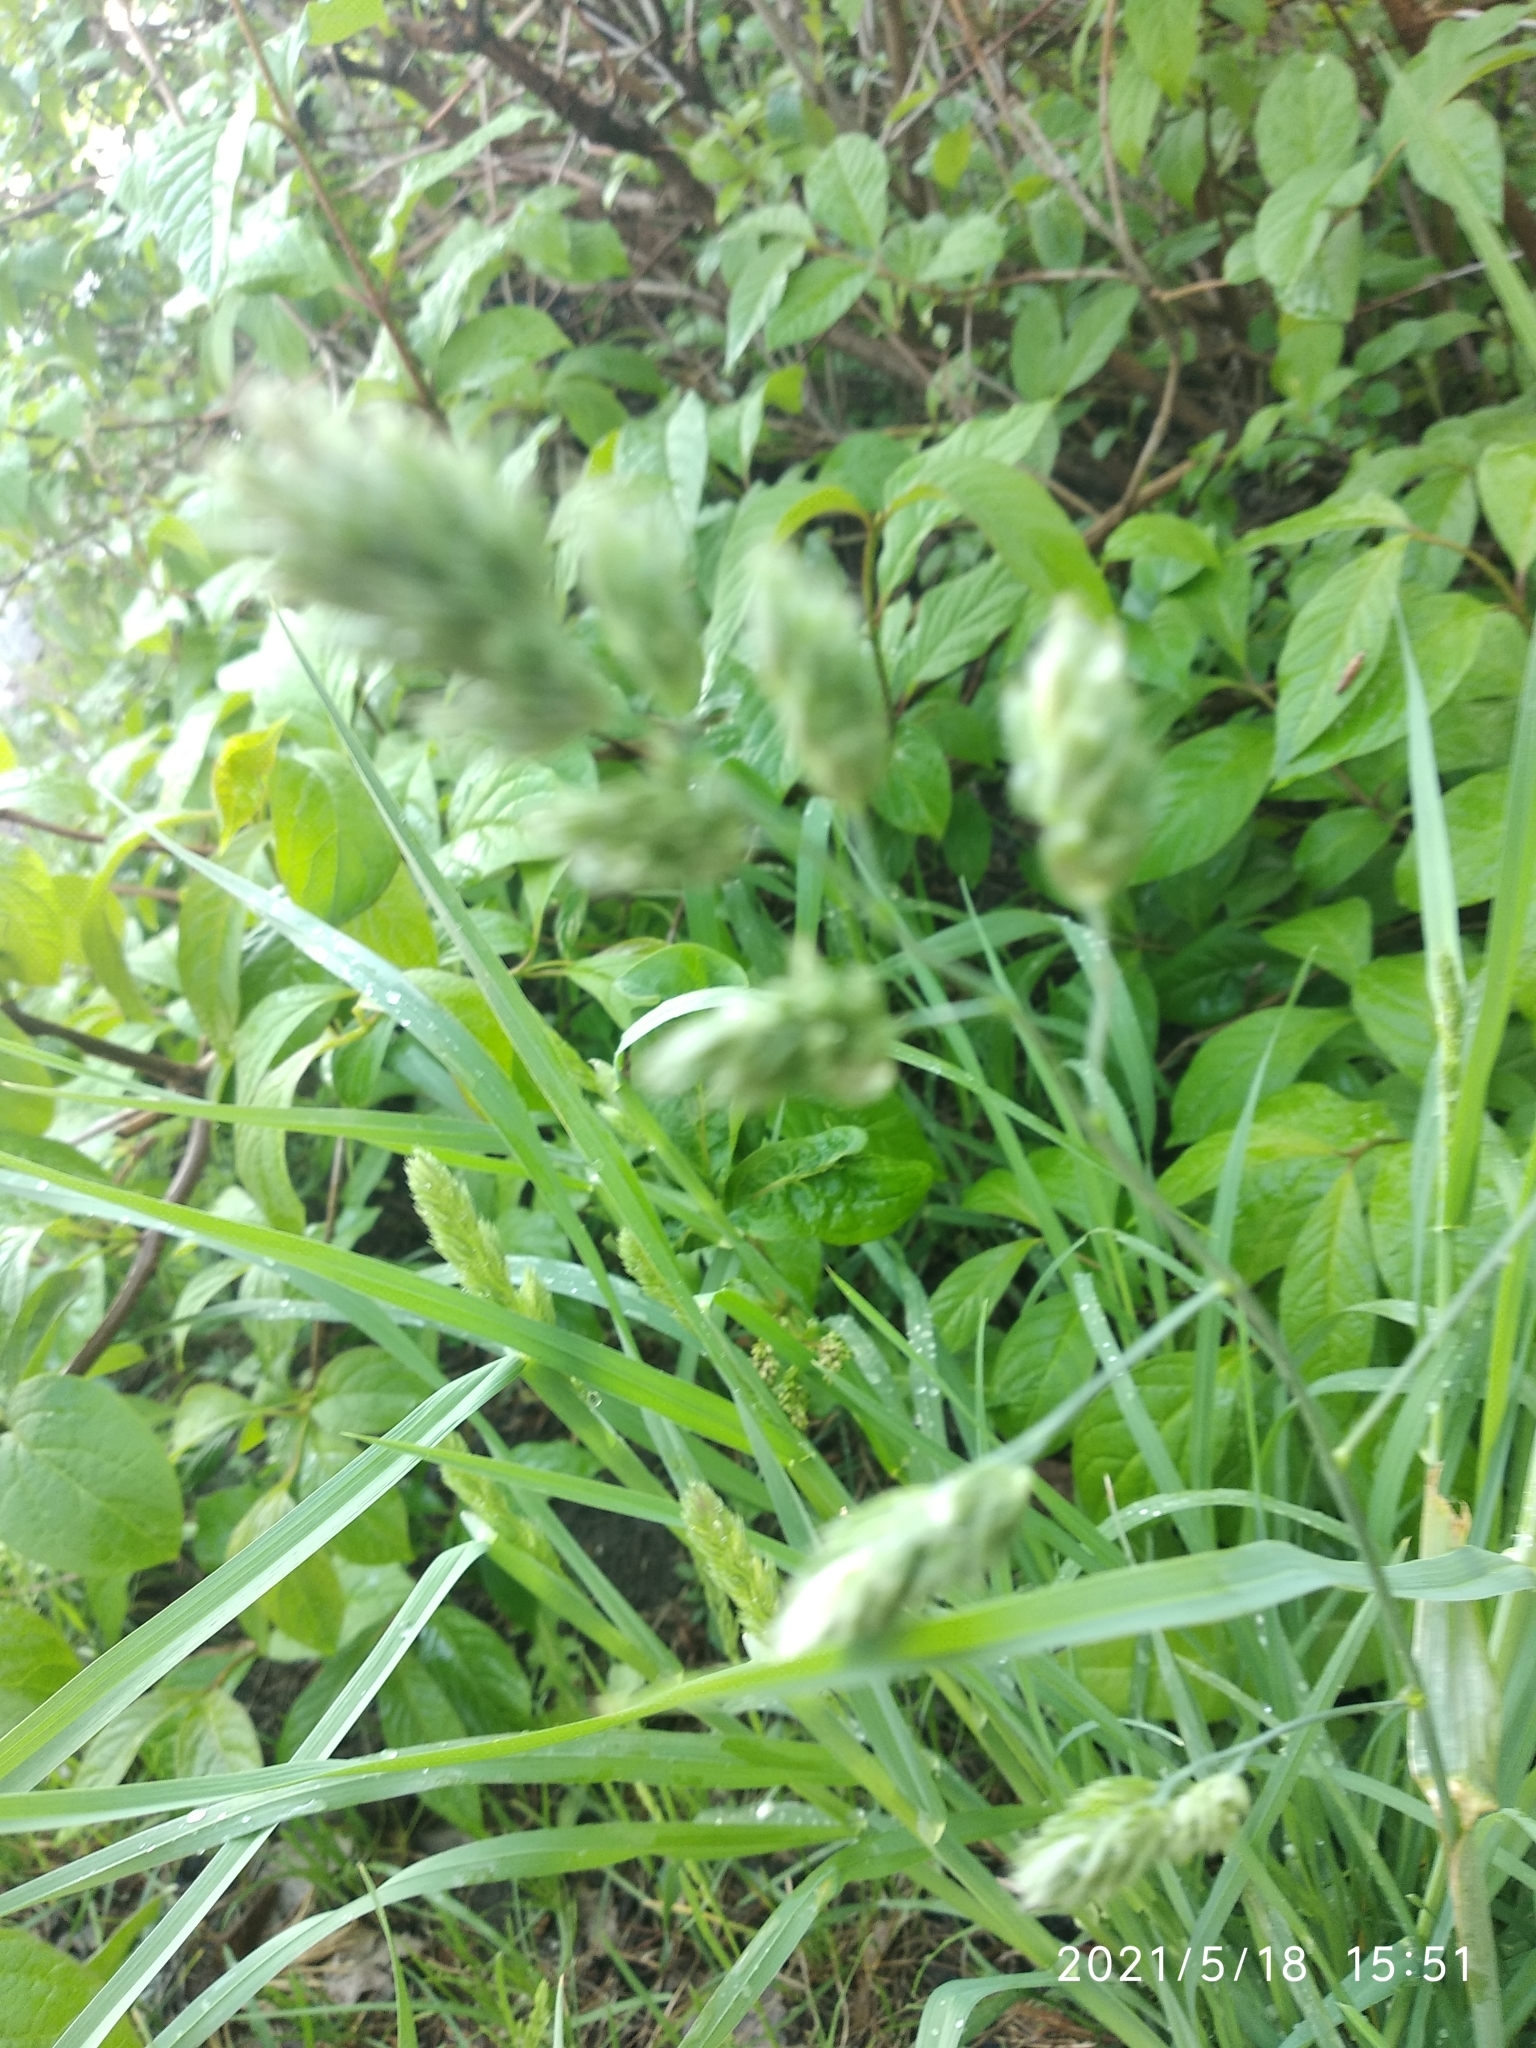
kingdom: Plantae
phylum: Tracheophyta
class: Liliopsida
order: Poales
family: Poaceae
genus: Dactylis
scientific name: Dactylis glomerata
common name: Orchardgrass
